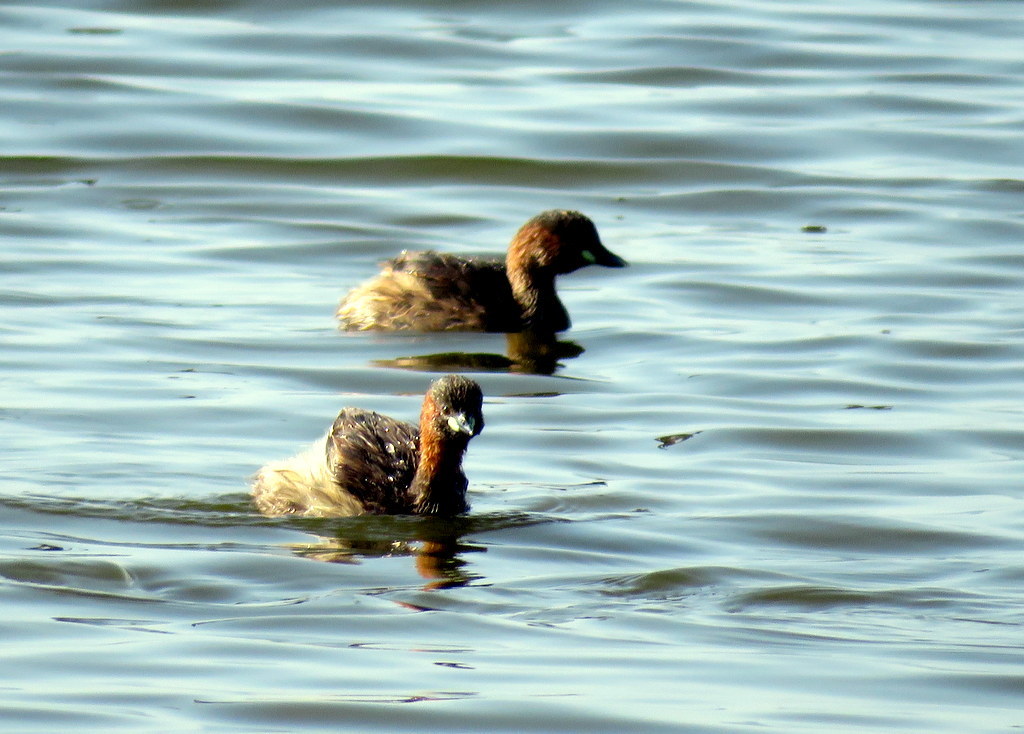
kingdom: Animalia
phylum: Chordata
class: Aves
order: Podicipediformes
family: Podicipedidae
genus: Tachybaptus
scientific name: Tachybaptus ruficollis
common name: Little grebe
